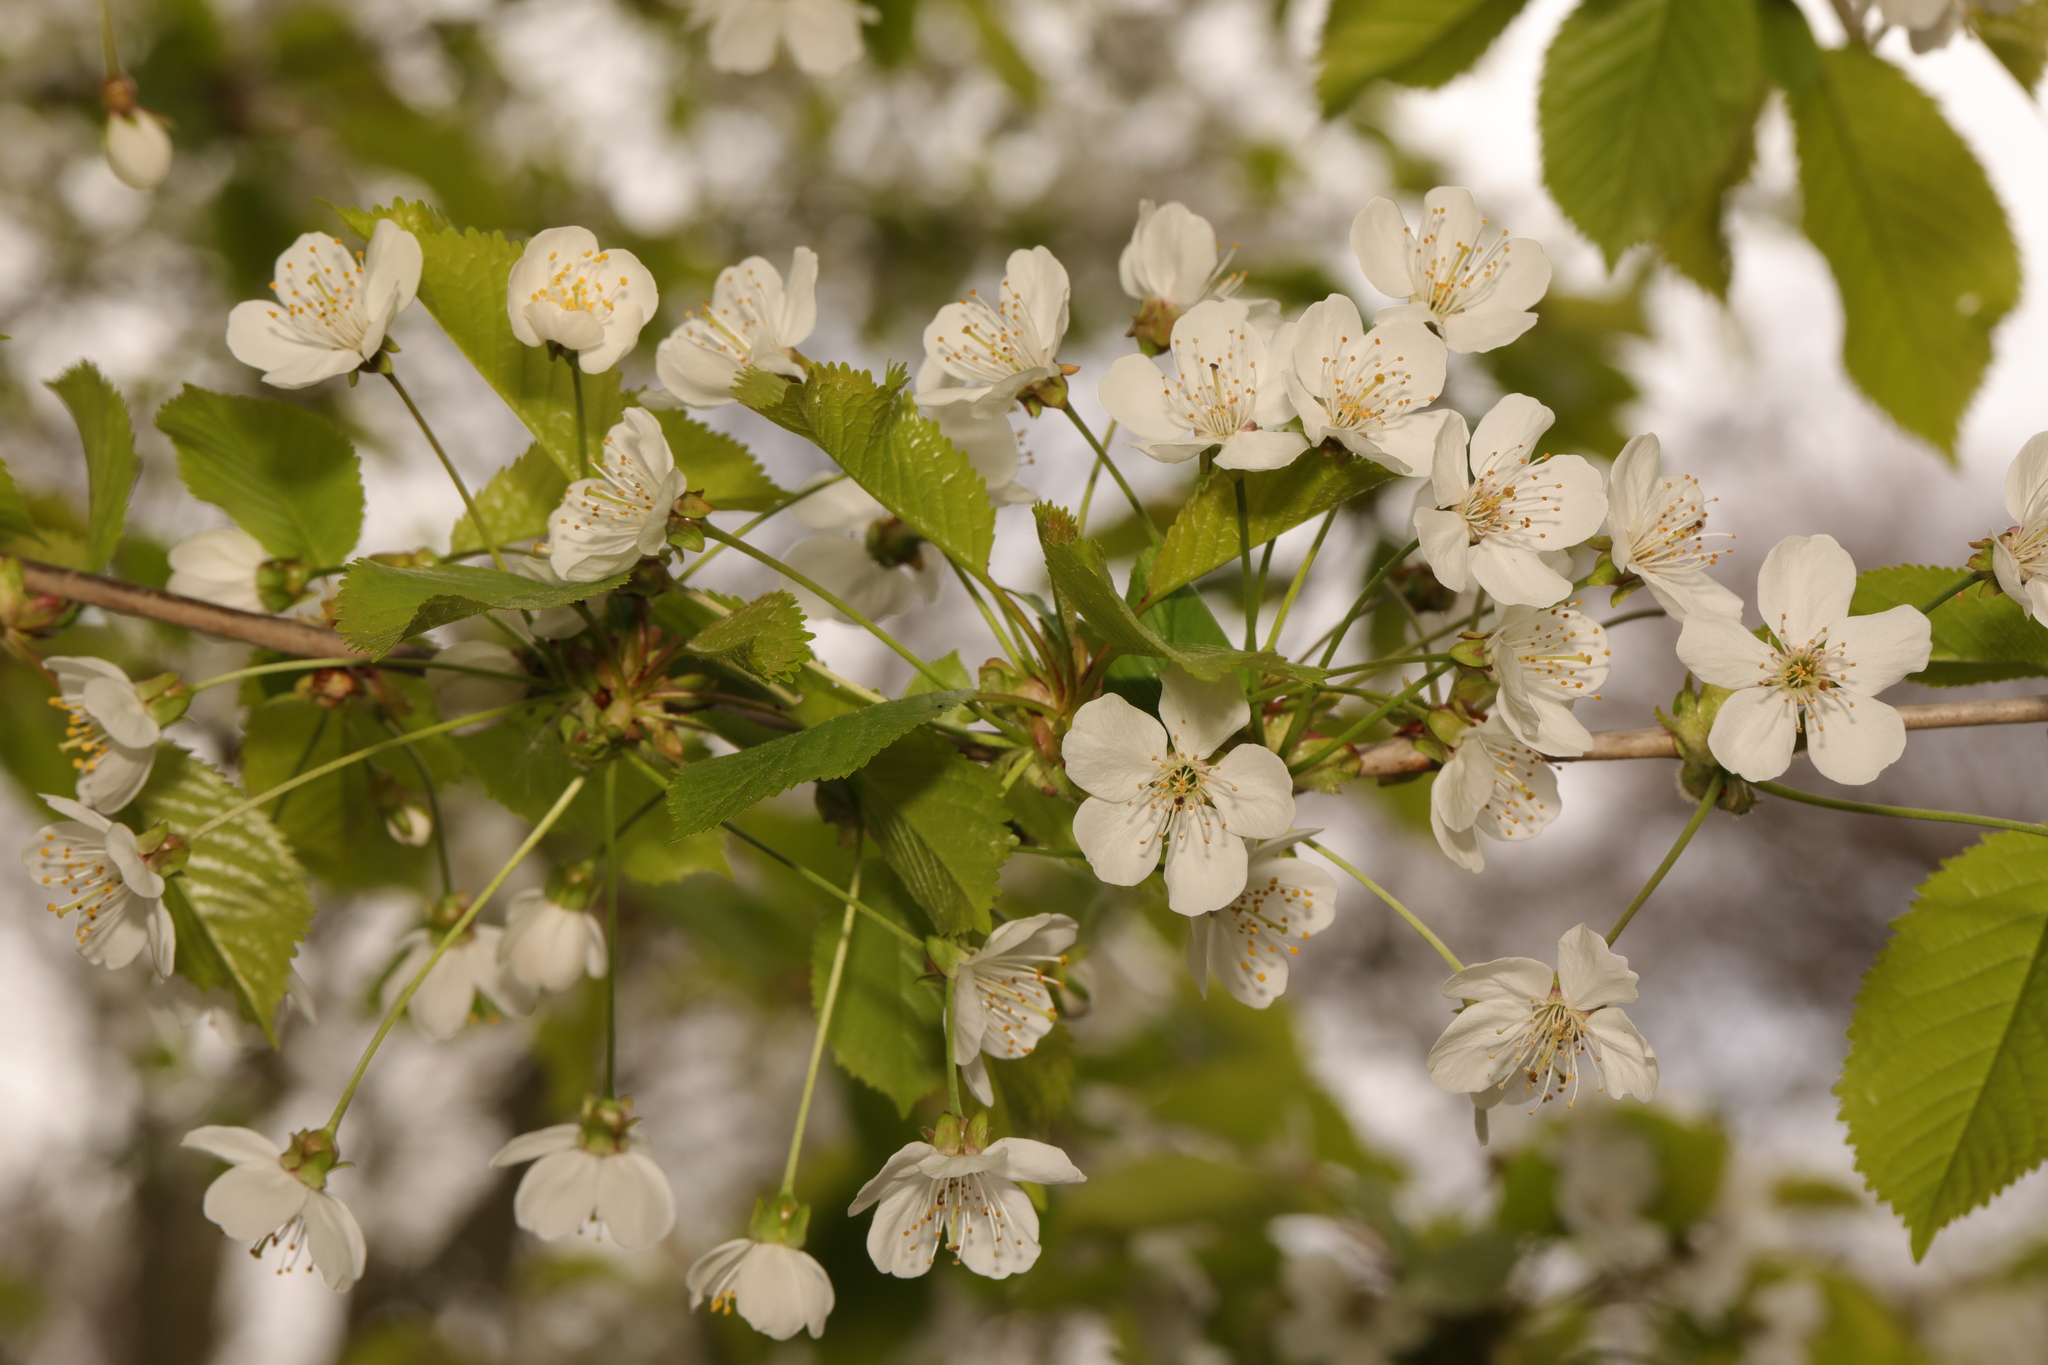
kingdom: Plantae
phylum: Tracheophyta
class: Magnoliopsida
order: Rosales
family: Rosaceae
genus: Prunus
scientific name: Prunus avium
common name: Sweet cherry
